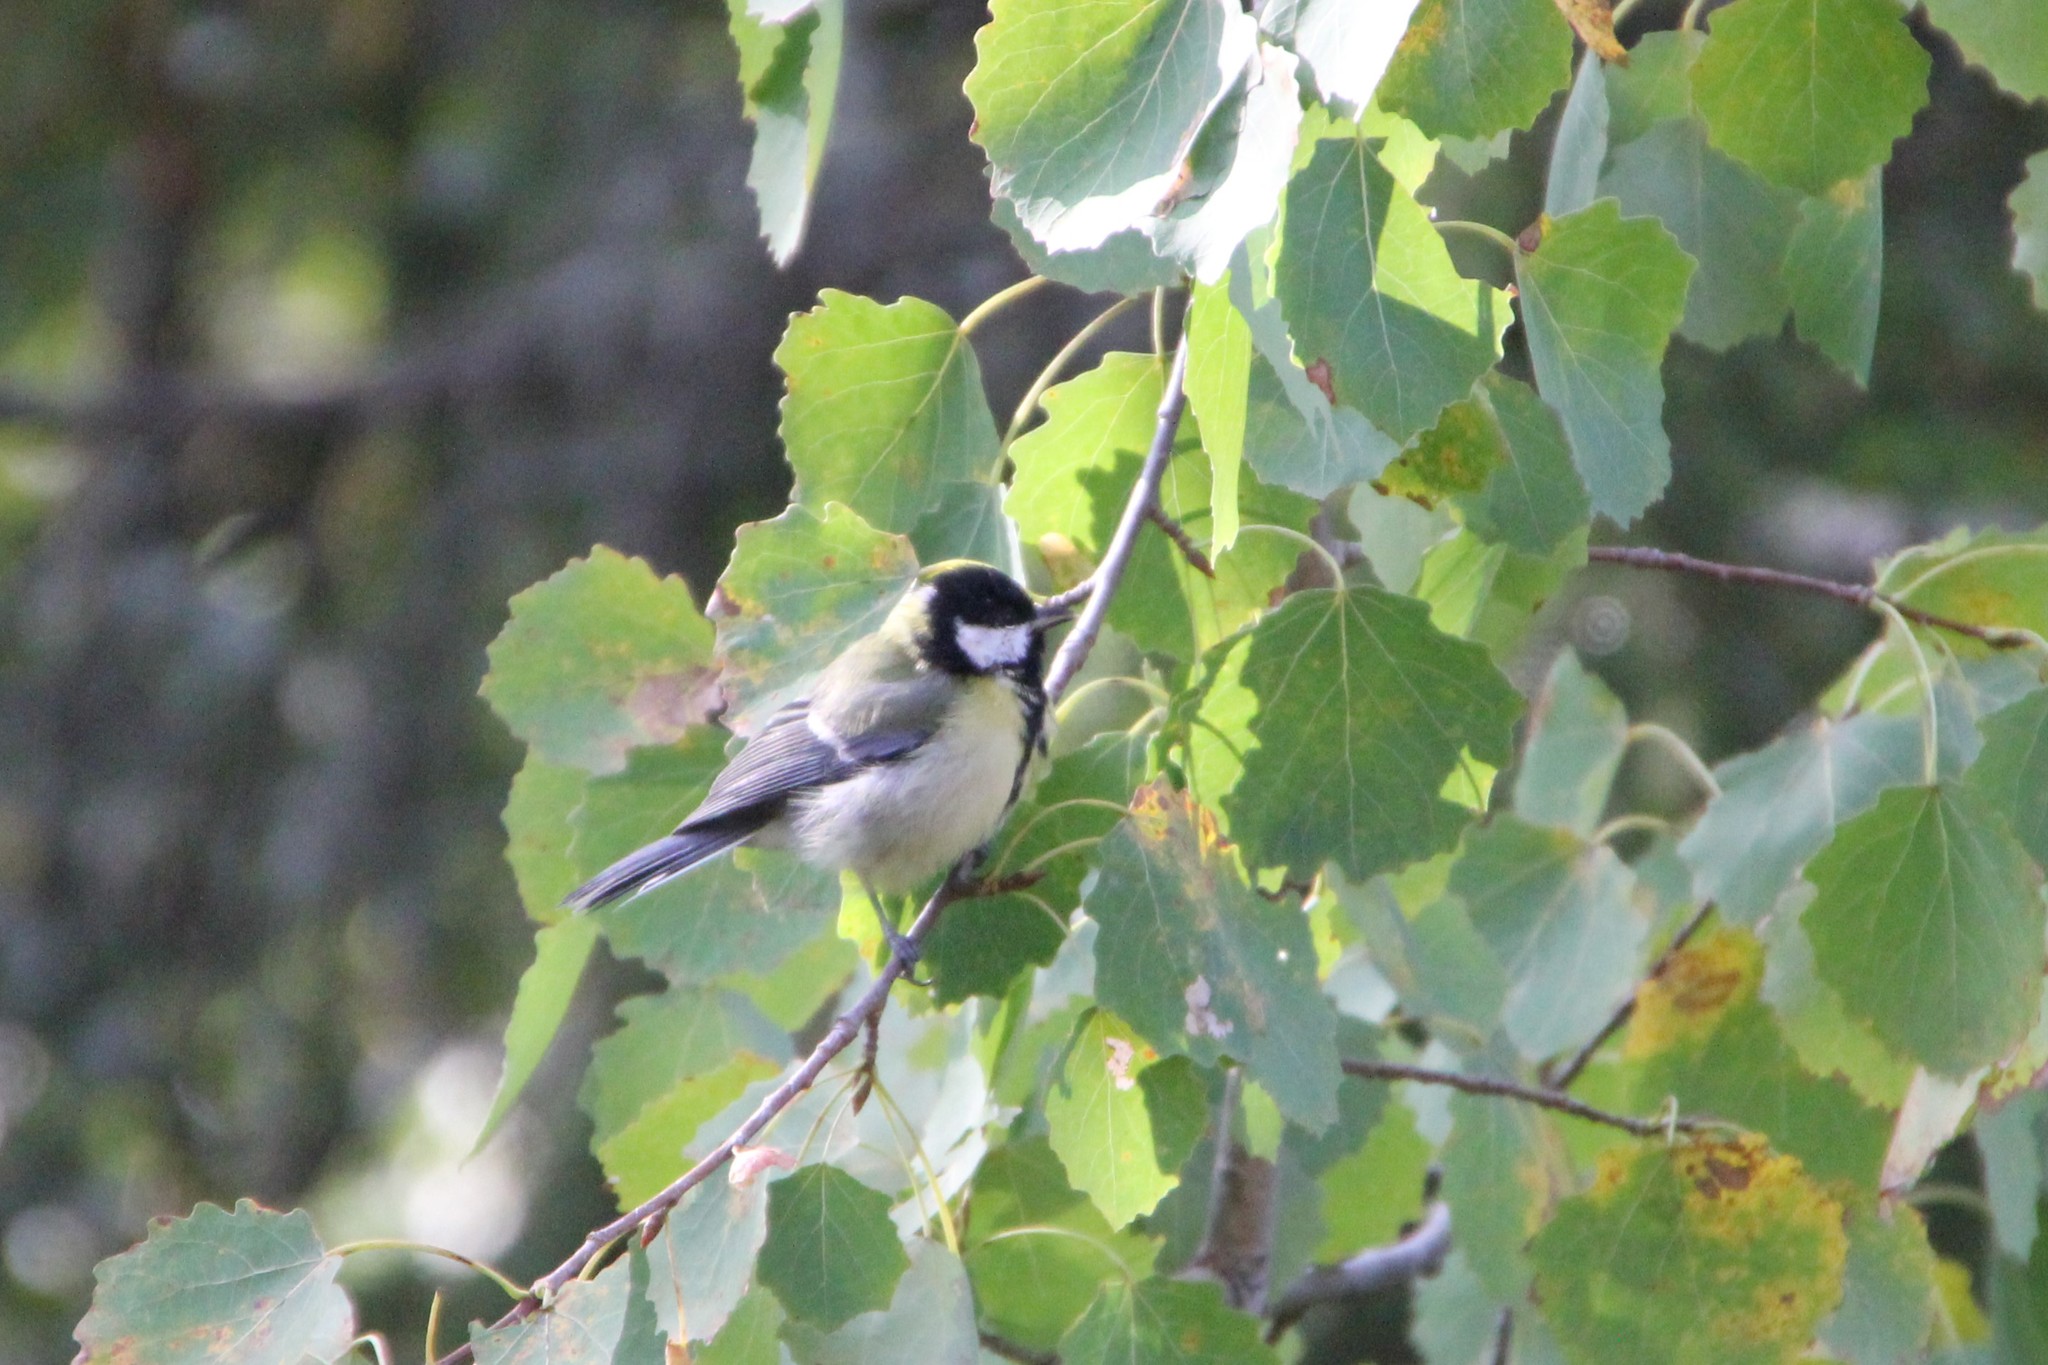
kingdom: Animalia
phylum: Chordata
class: Aves
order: Passeriformes
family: Paridae
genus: Parus
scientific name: Parus major
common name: Great tit
